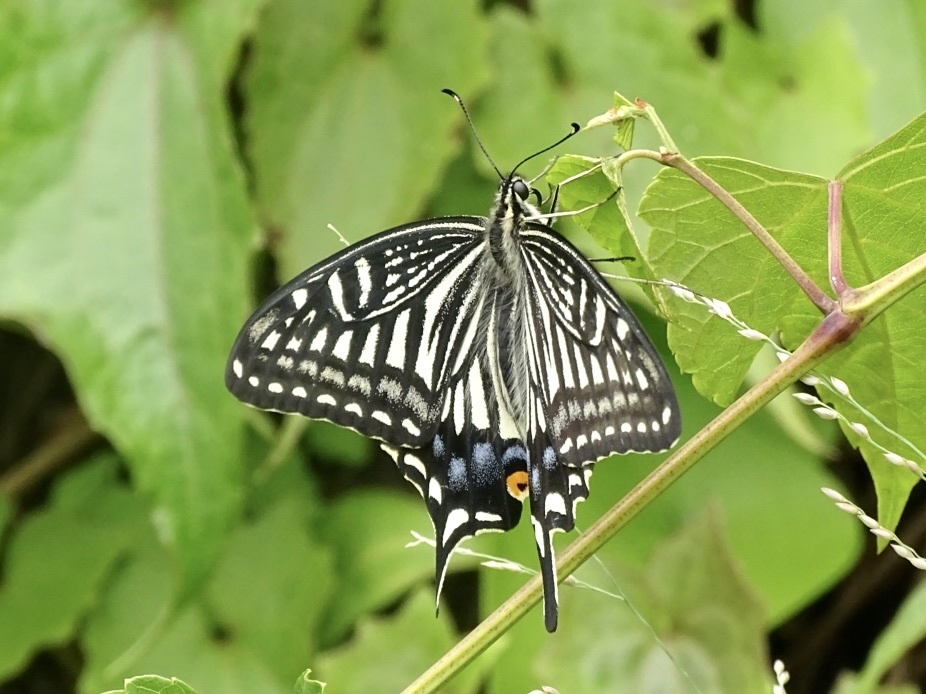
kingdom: Animalia
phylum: Arthropoda
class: Insecta
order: Lepidoptera
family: Papilionidae
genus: Papilio
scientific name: Papilio xuthus
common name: Asian swallowtail
